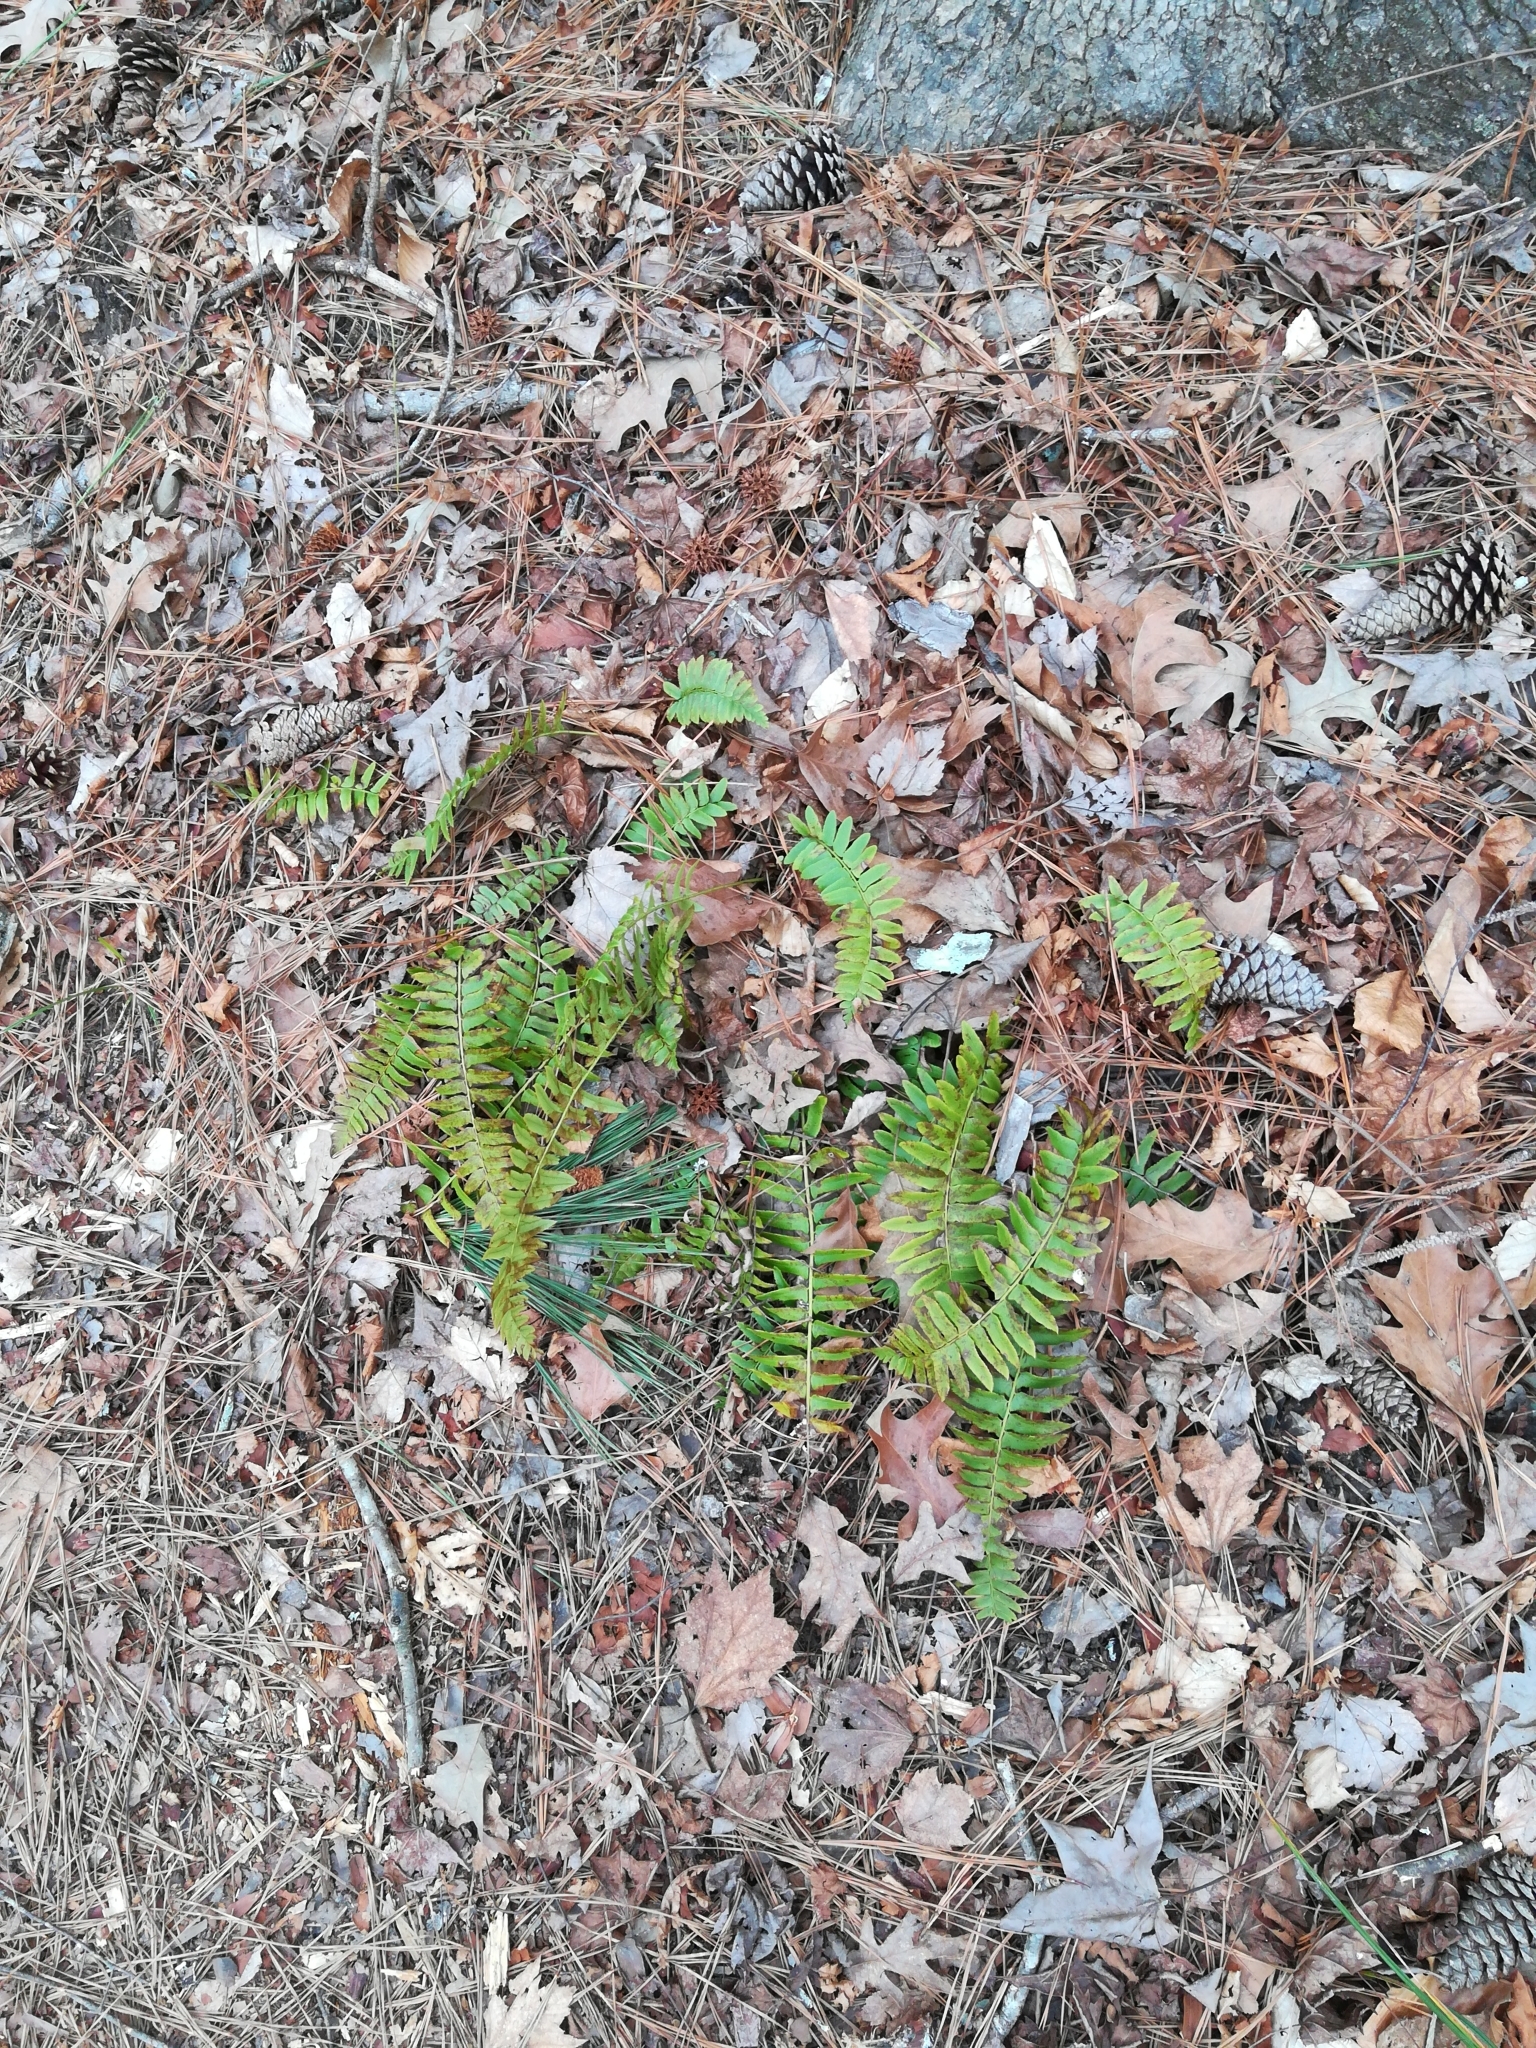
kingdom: Plantae
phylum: Tracheophyta
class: Polypodiopsida
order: Polypodiales
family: Dryopteridaceae
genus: Polystichum
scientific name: Polystichum acrostichoides
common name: Christmas fern
